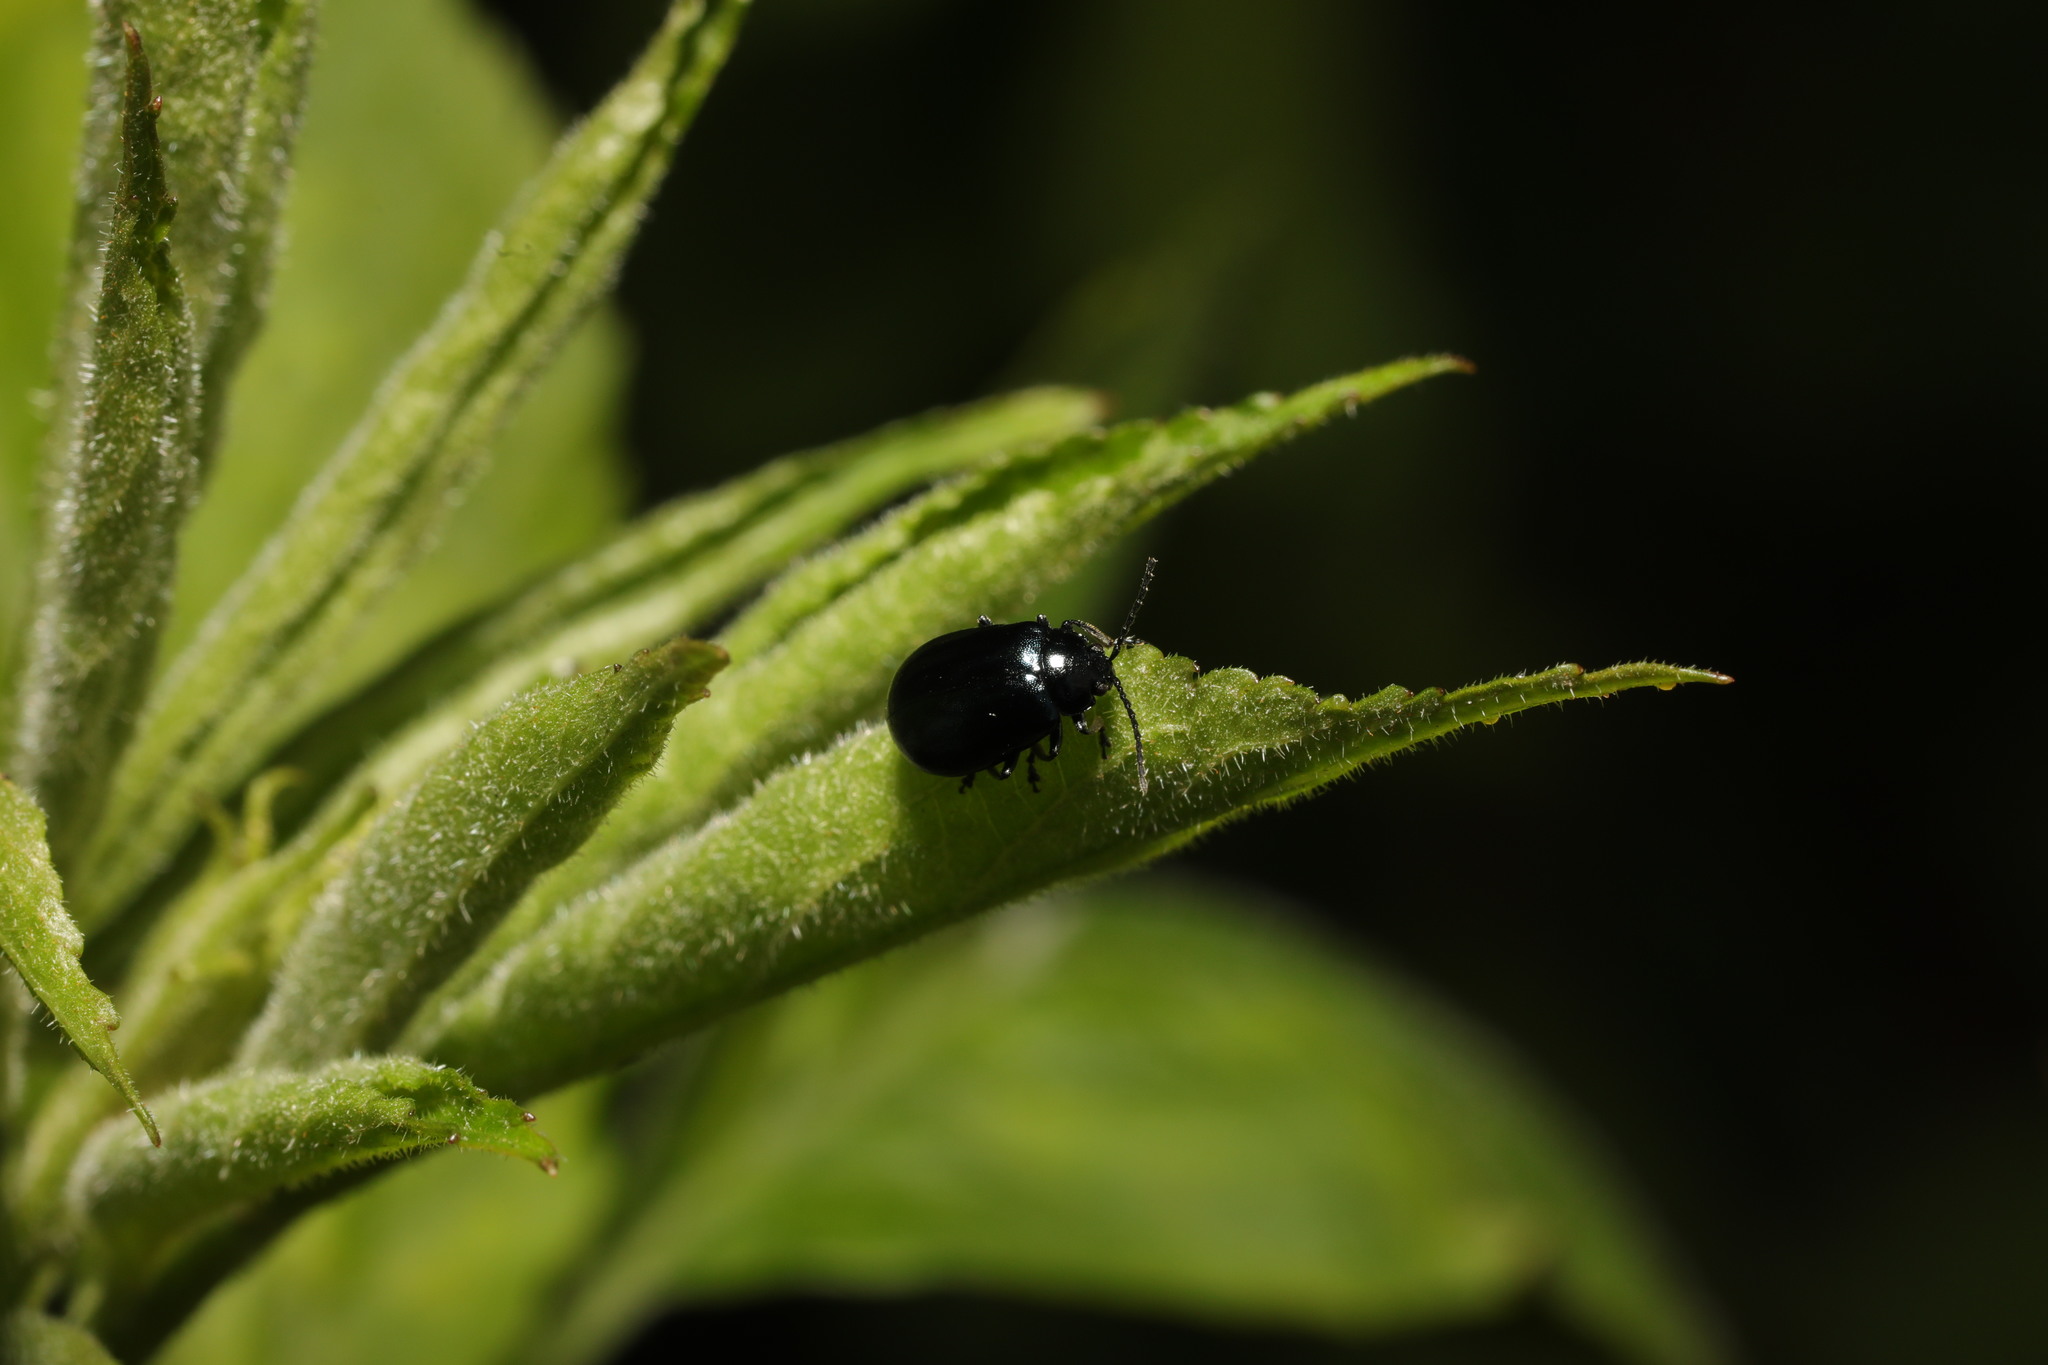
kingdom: Animalia
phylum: Arthropoda
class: Insecta
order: Coleoptera
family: Chrysomelidae
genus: Agelastica
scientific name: Agelastica alni
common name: Alder leaf beetle
